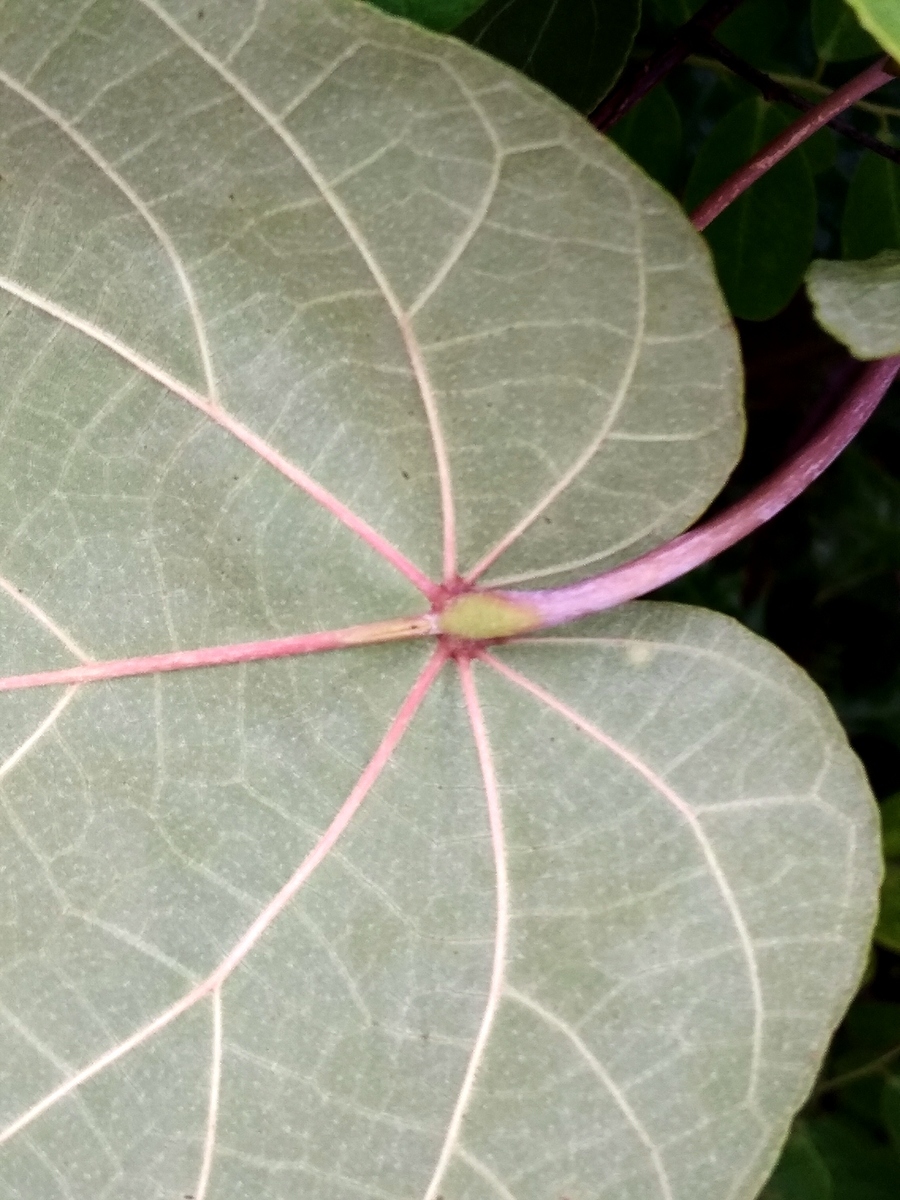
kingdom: Plantae
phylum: Tracheophyta
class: Magnoliopsida
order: Malvales
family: Malvaceae
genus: Talipariti
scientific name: Talipariti tiliaceum
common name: Sea hibiscus
